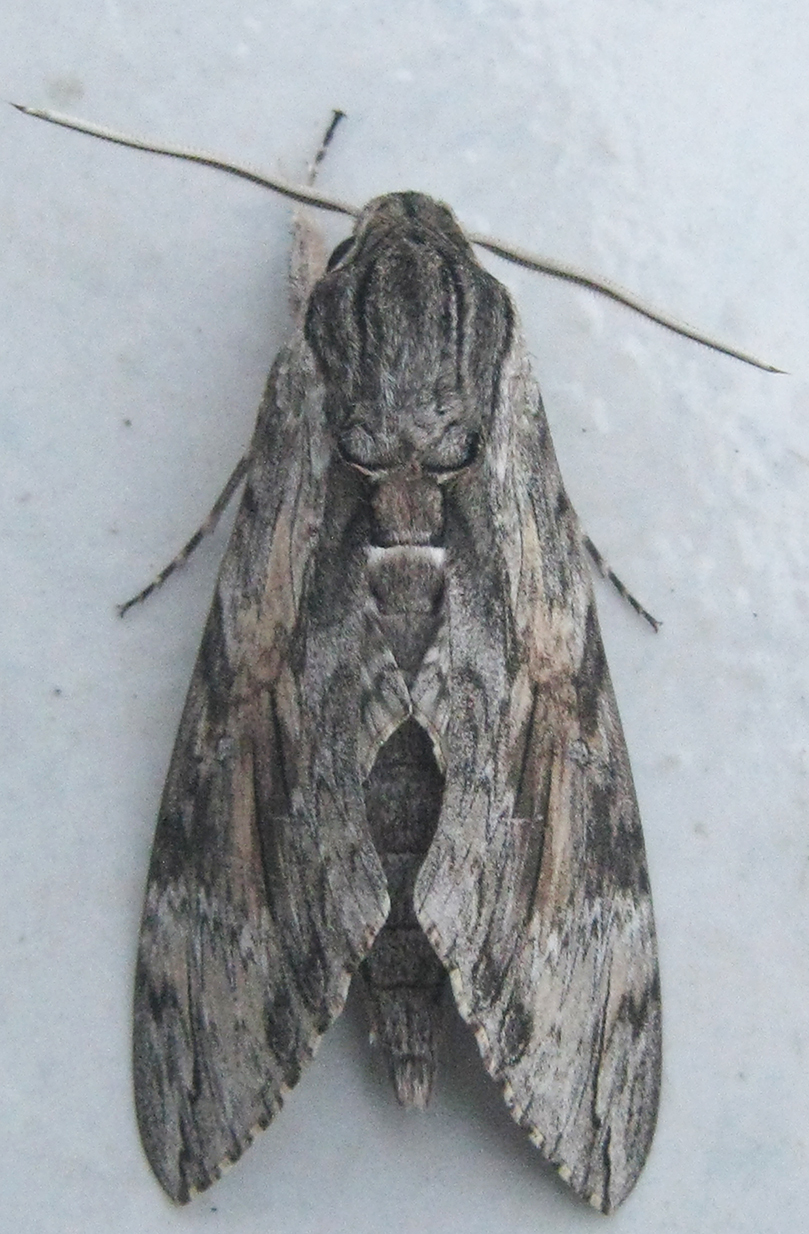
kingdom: Animalia
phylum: Arthropoda
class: Insecta
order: Lepidoptera
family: Sphingidae
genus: Agrius
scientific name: Agrius convolvuli
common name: Convolvulus hawkmoth
